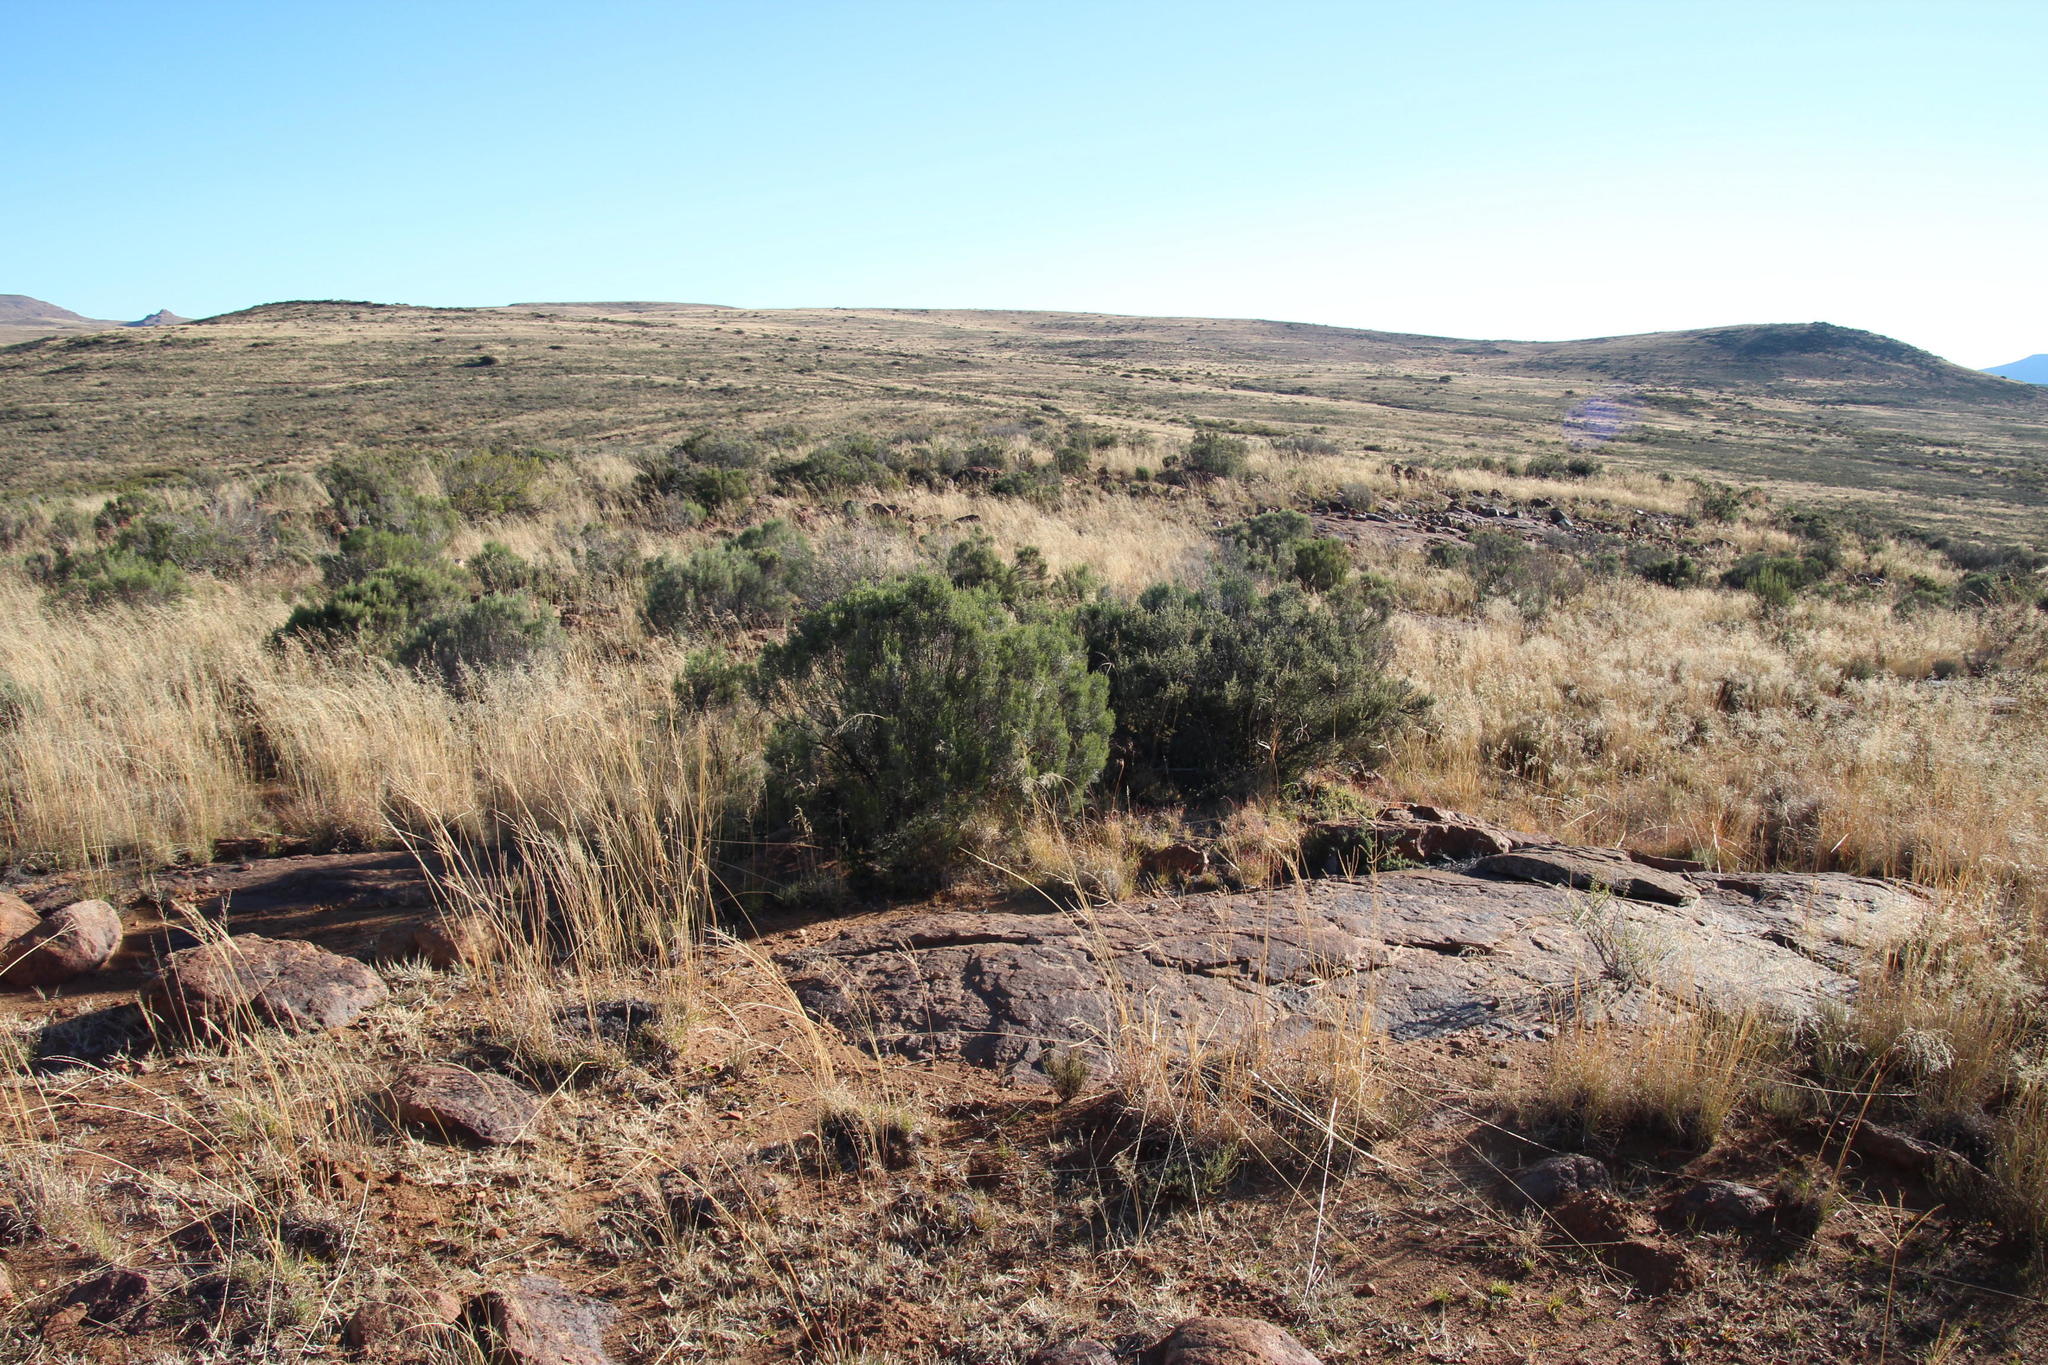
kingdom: Plantae
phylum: Tracheophyta
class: Magnoliopsida
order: Asterales
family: Asteraceae
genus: Dicerothamnus
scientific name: Dicerothamnus rhinocerotis
